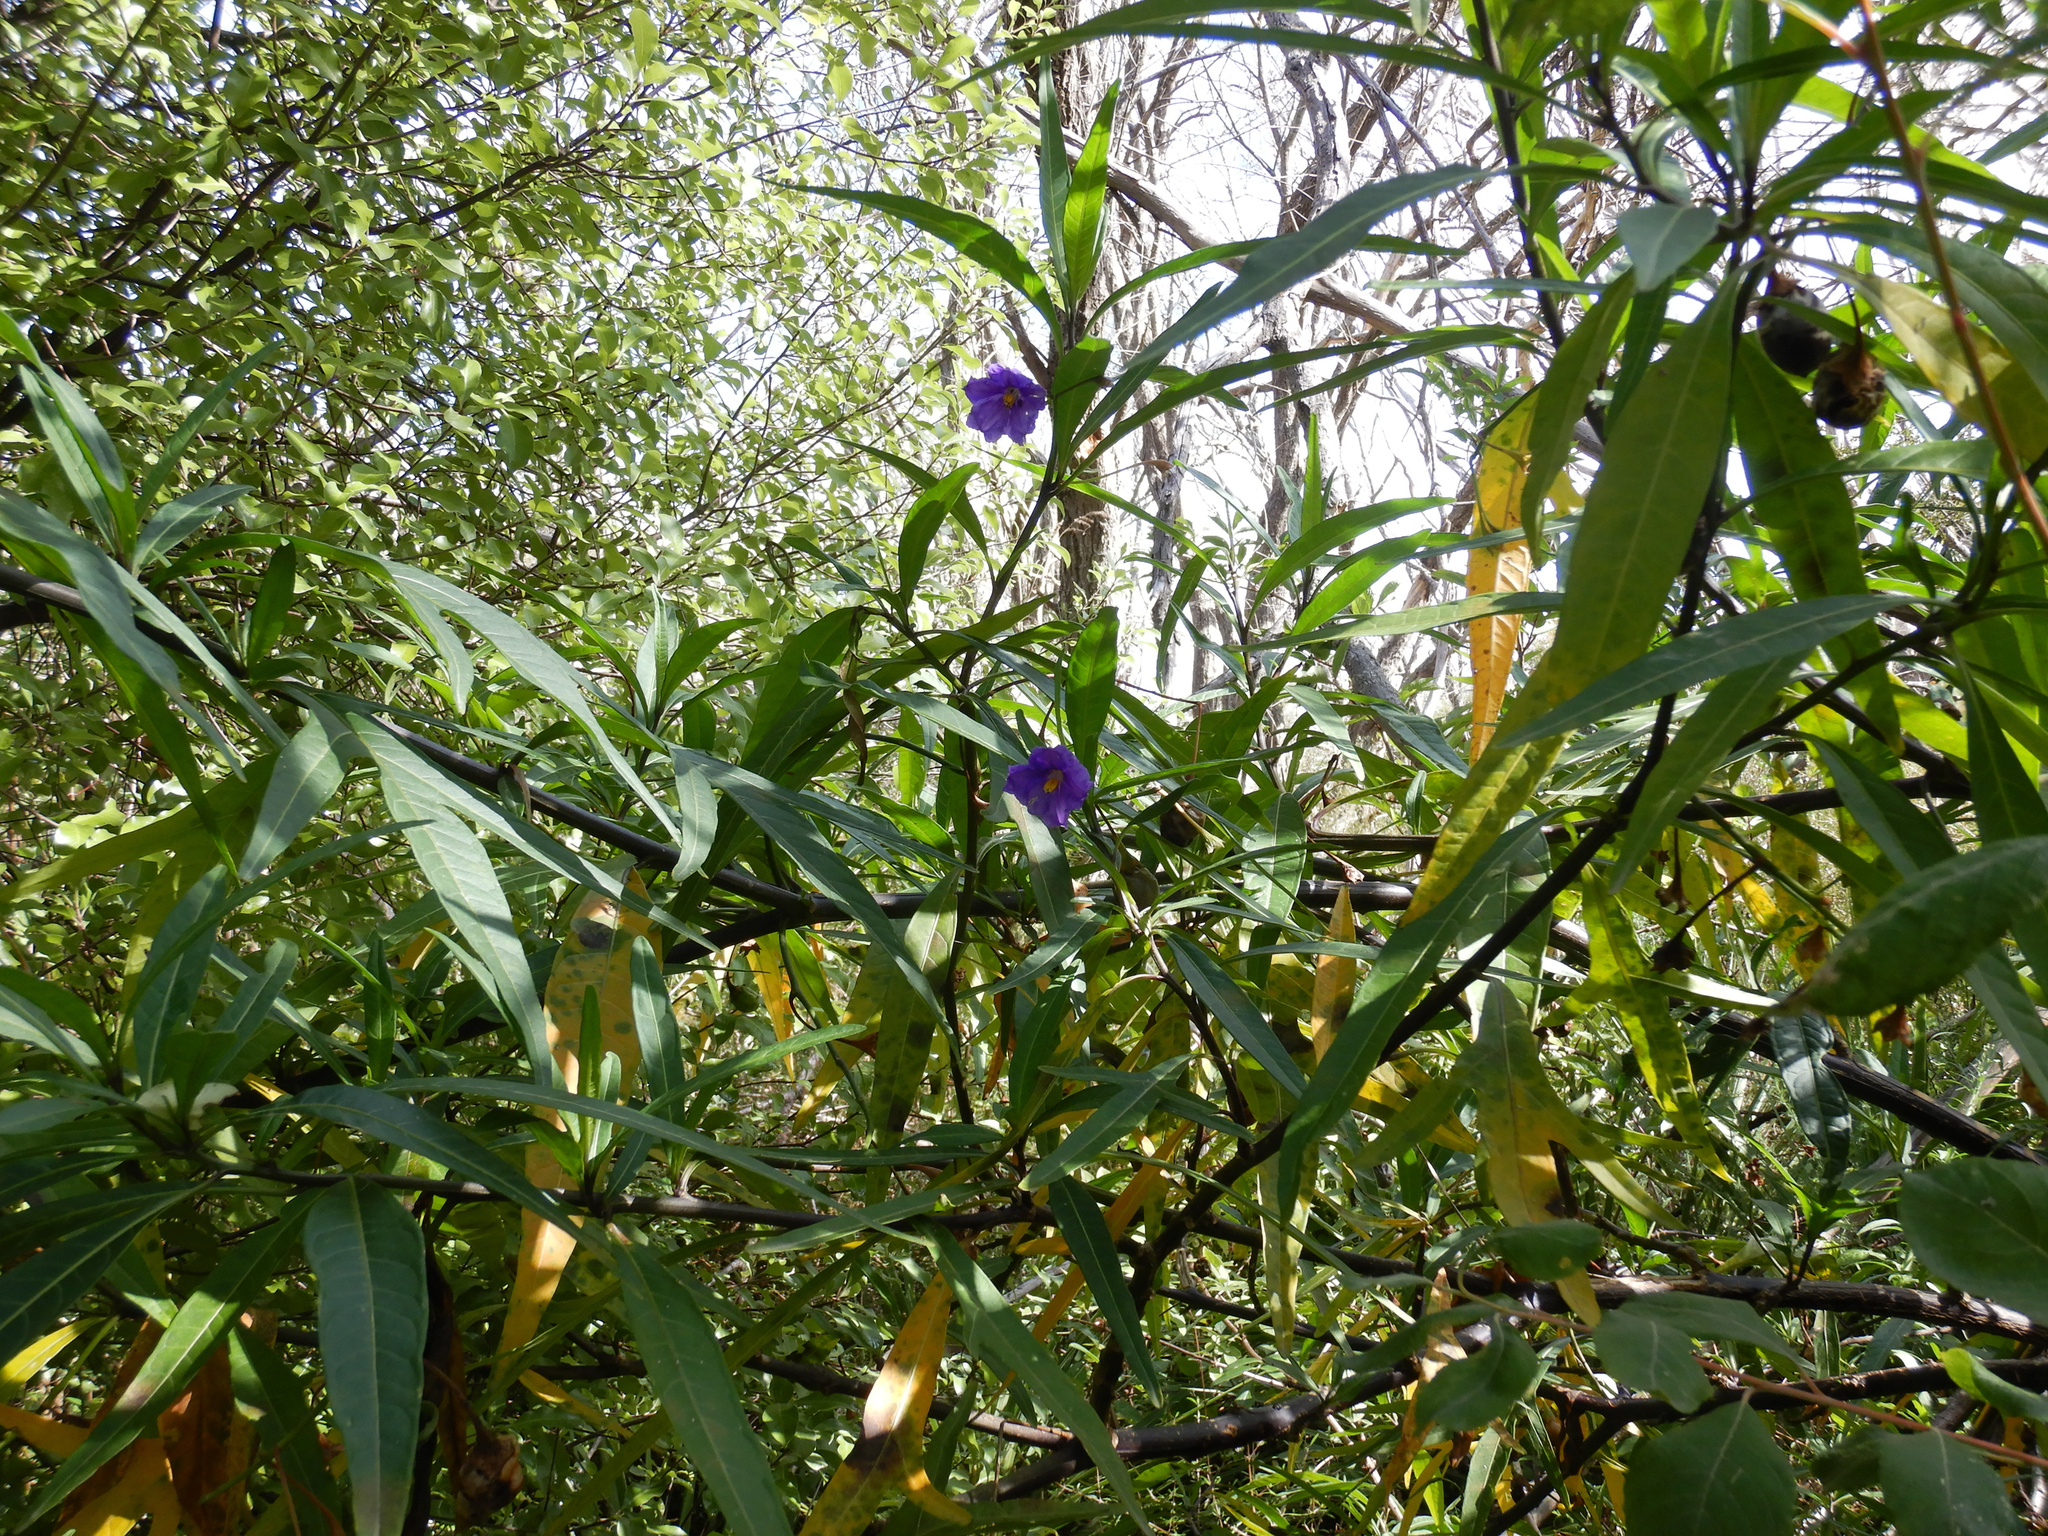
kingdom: Plantae
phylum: Tracheophyta
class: Magnoliopsida
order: Solanales
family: Solanaceae
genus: Solanum
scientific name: Solanum laciniatum
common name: Kangaroo-apple
